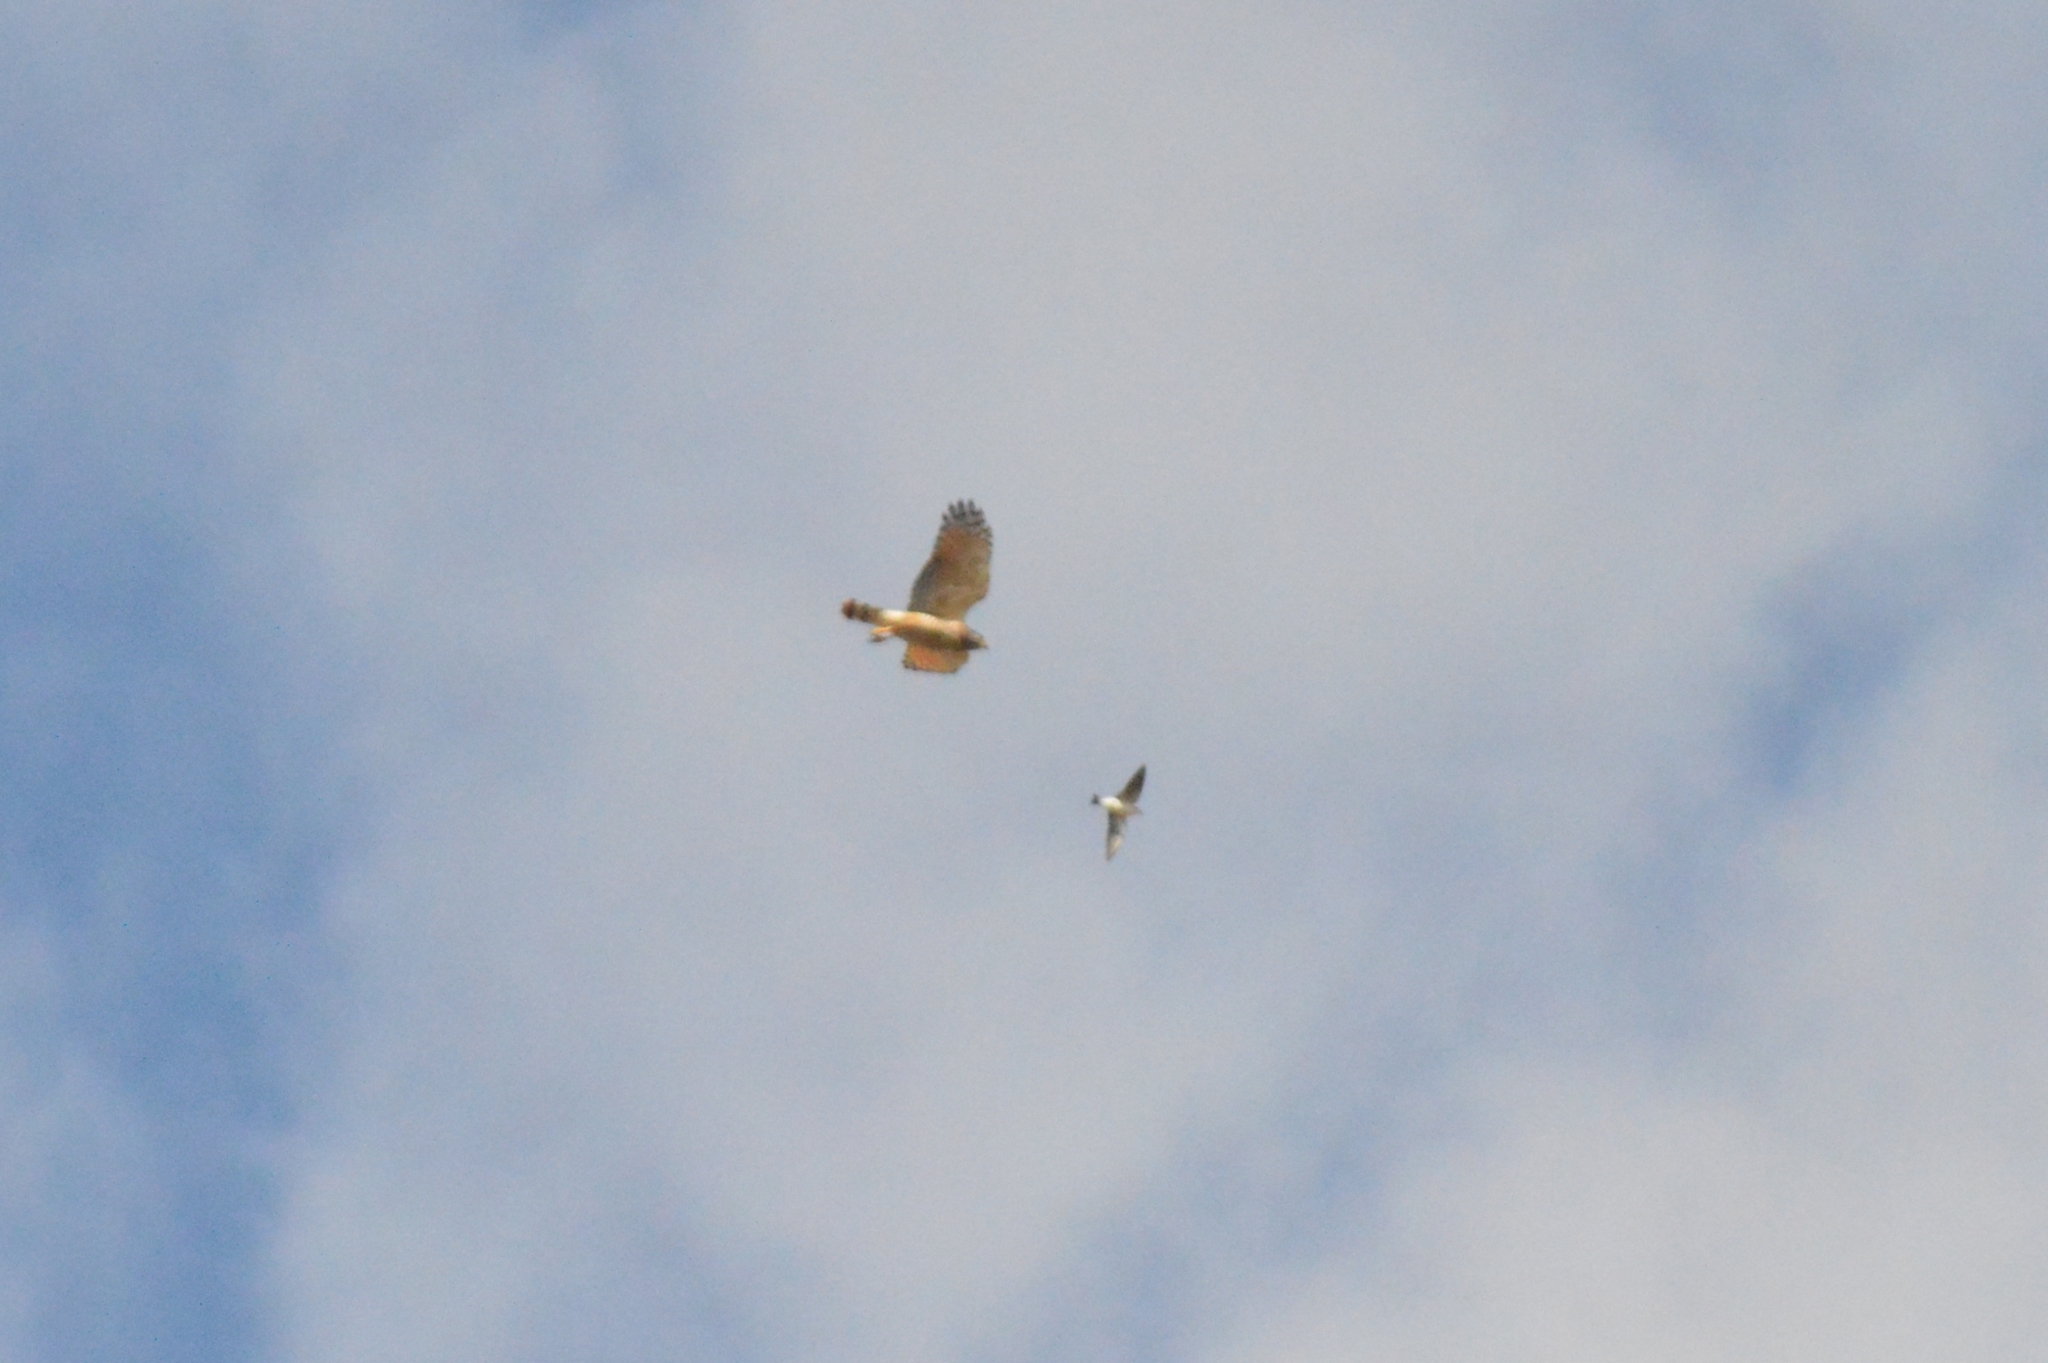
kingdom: Animalia
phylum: Chordata
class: Aves
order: Accipitriformes
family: Accipitridae
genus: Rupornis
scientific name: Rupornis magnirostris
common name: Roadside hawk
